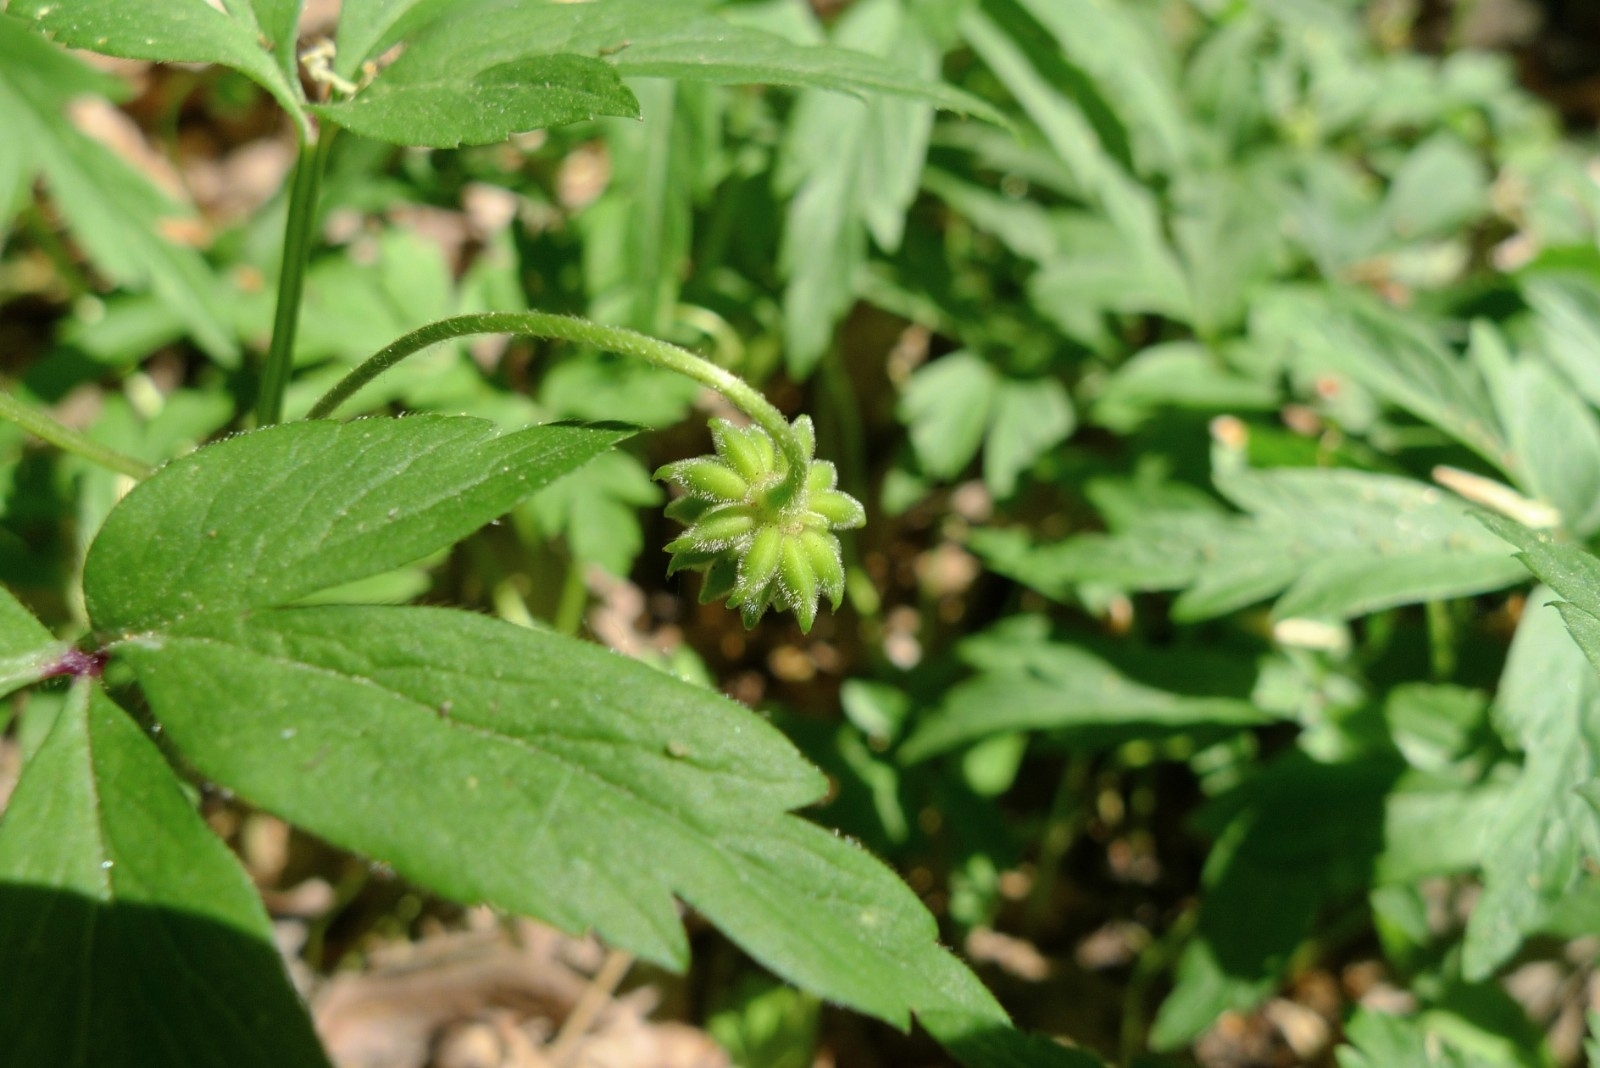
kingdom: Plantae
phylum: Tracheophyta
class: Magnoliopsida
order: Ranunculales
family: Ranunculaceae
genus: Anemone
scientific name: Anemone nemorosa
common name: Wood anemone
